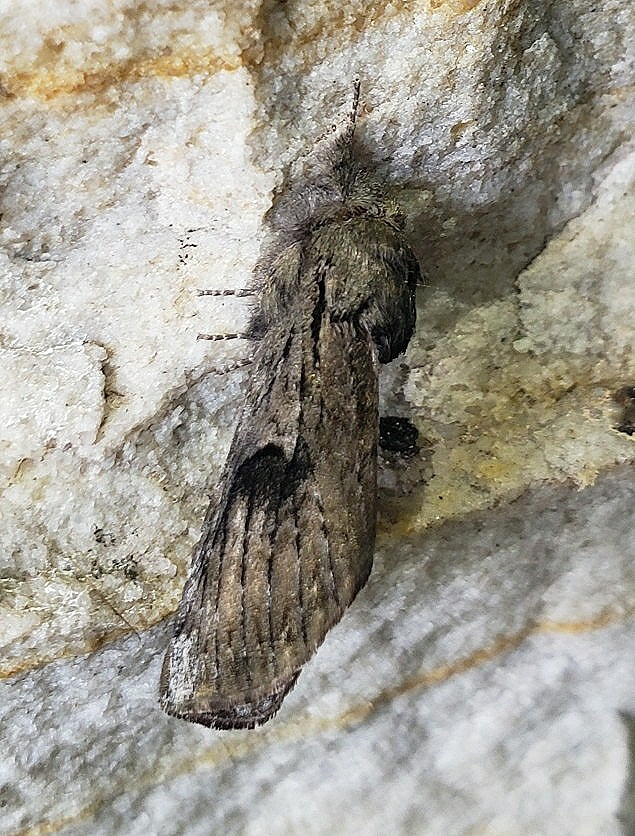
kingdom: Animalia
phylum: Arthropoda
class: Insecta
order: Lepidoptera
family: Notodontidae
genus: Schizura
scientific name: Schizura
